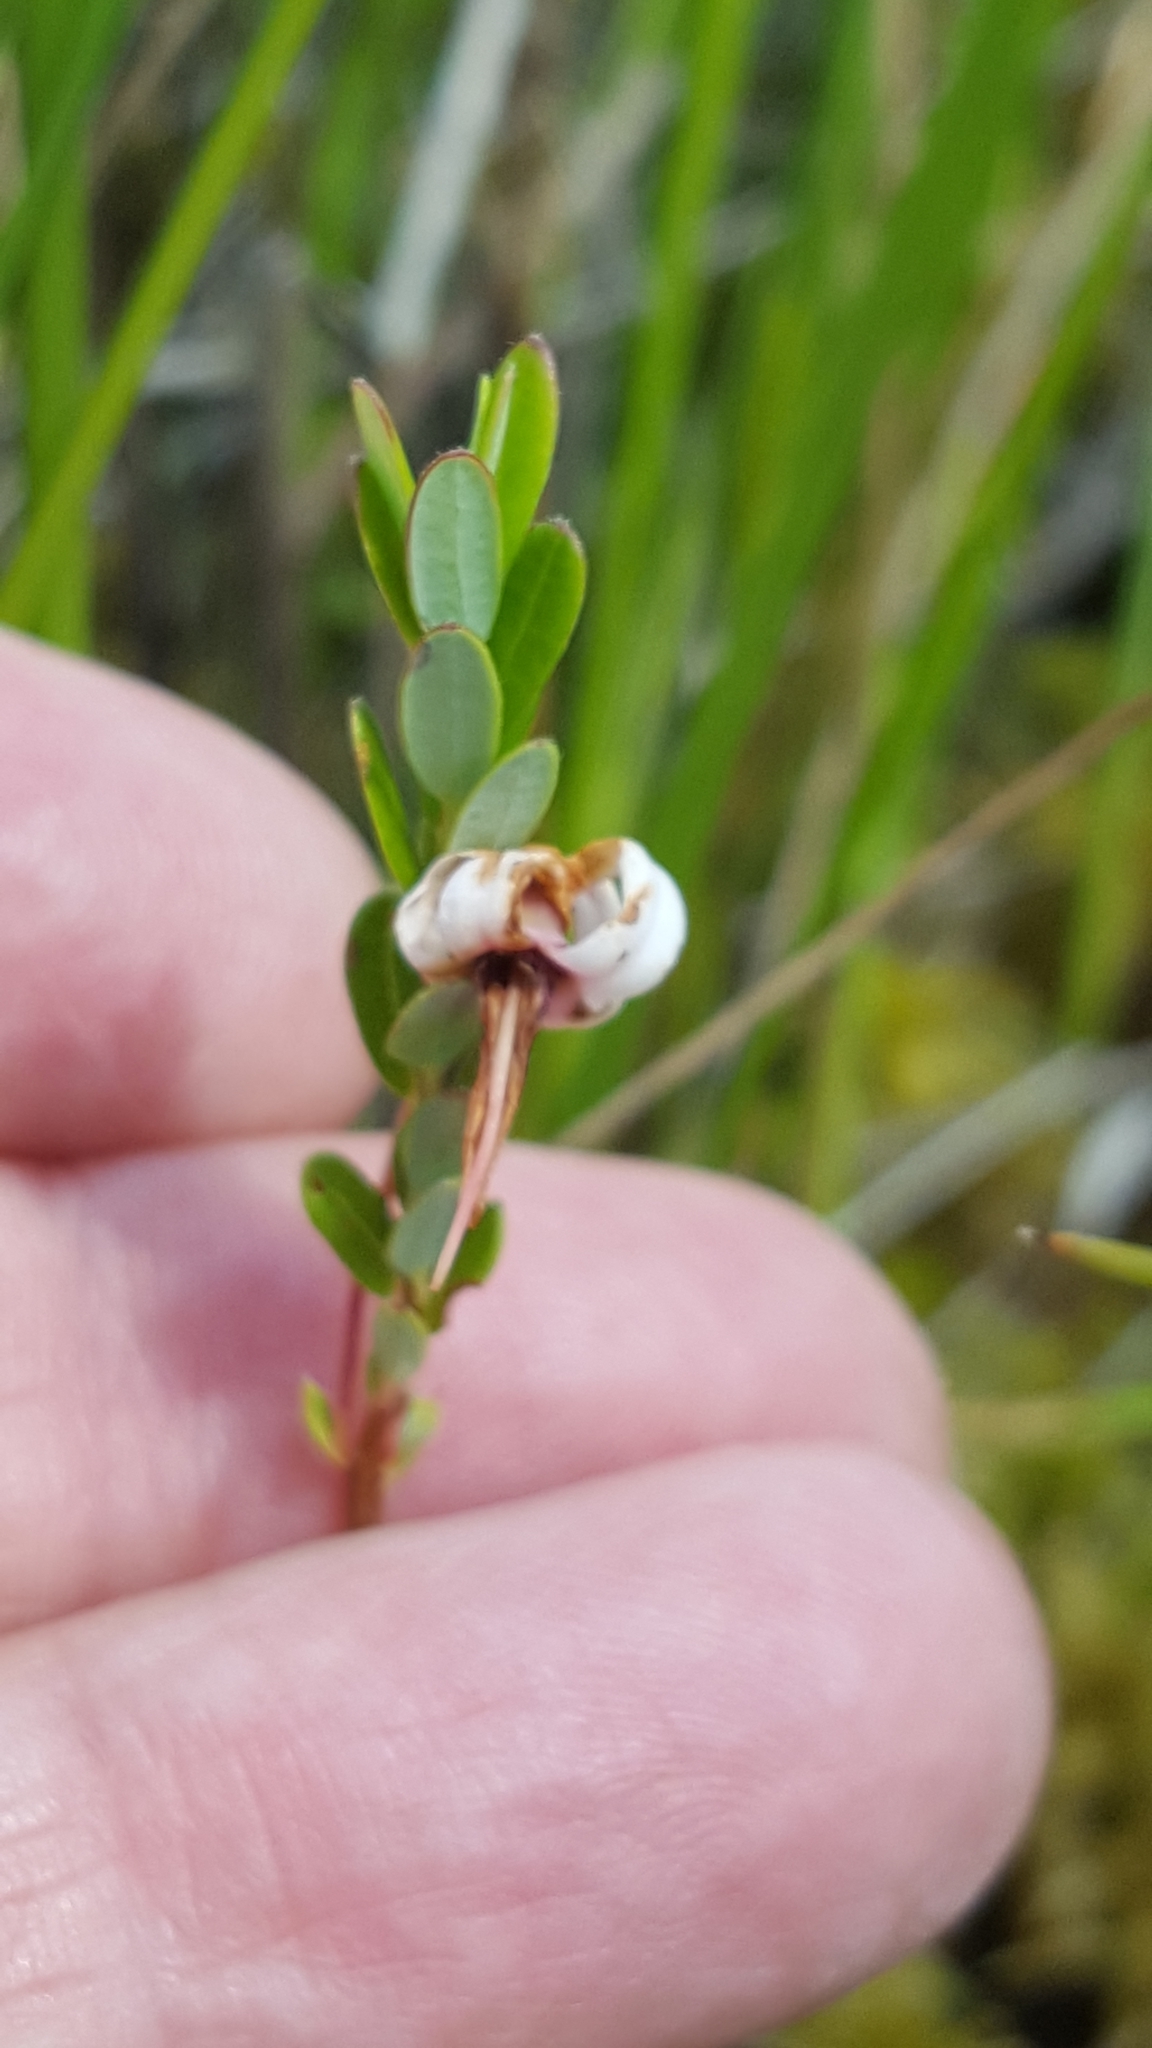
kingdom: Plantae
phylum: Tracheophyta
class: Magnoliopsida
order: Ericales
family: Ericaceae
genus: Vaccinium
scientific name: Vaccinium macrocarpon
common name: American cranberry
